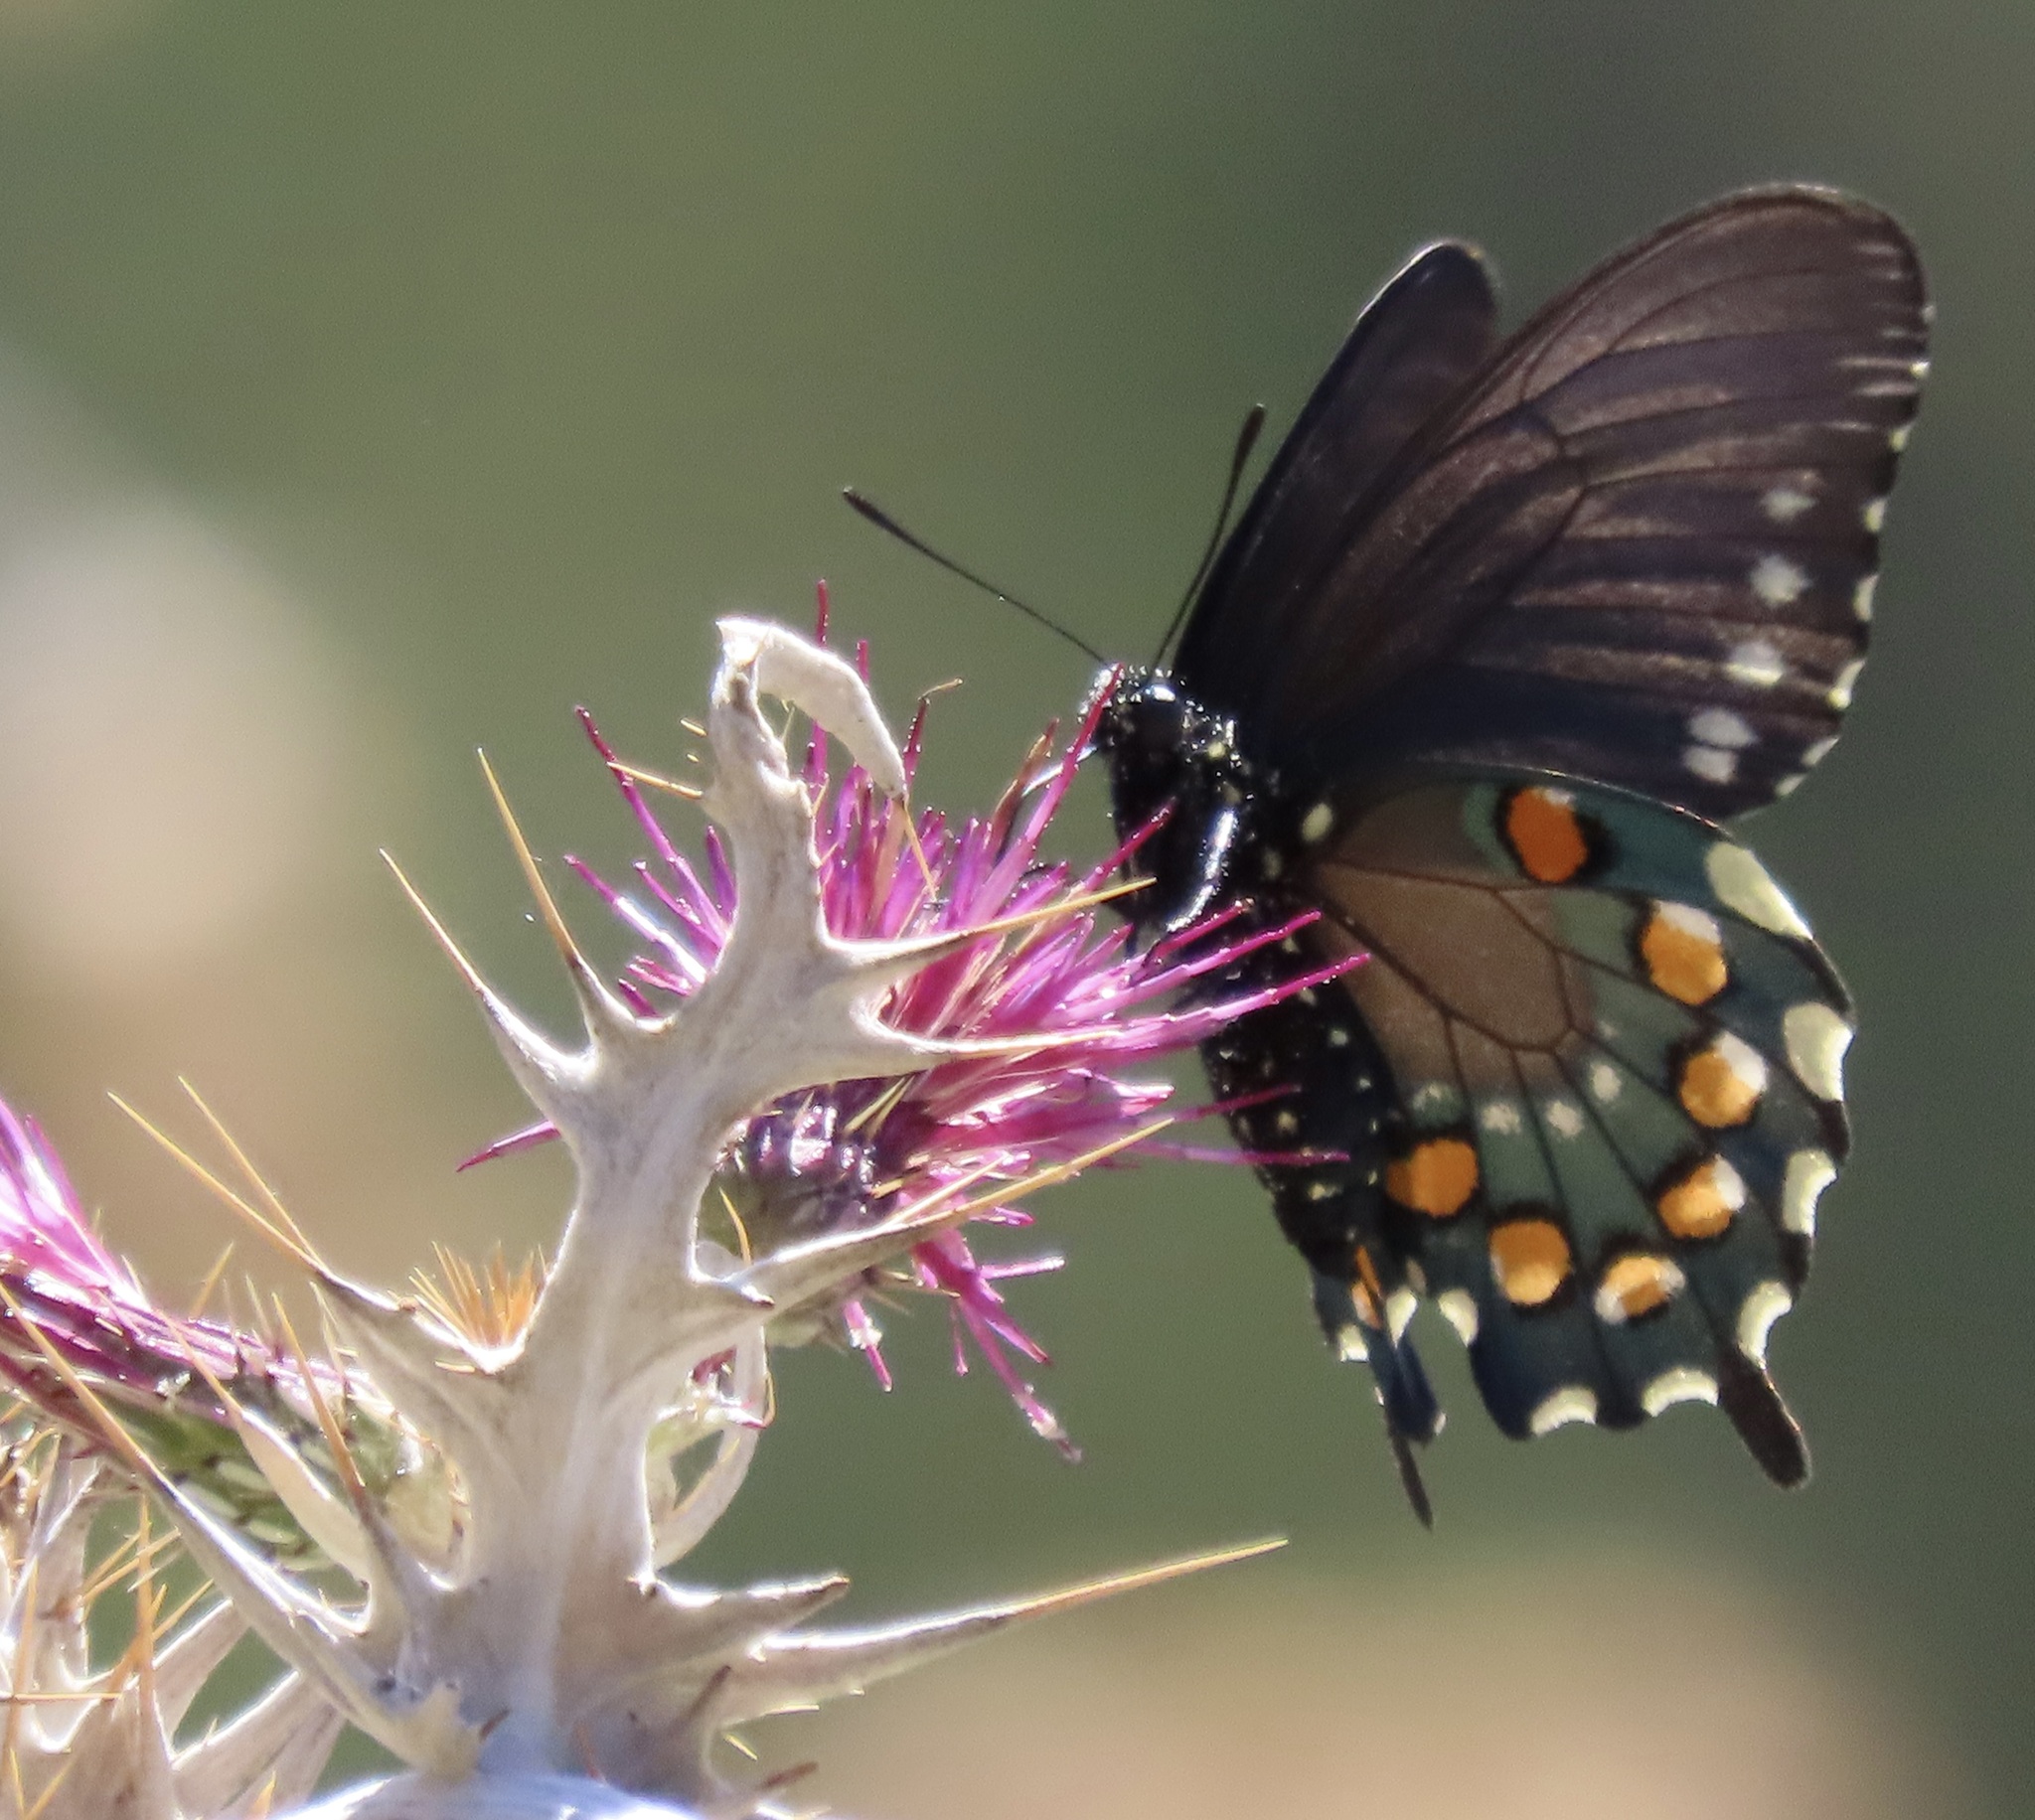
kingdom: Animalia
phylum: Arthropoda
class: Insecta
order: Lepidoptera
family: Papilionidae
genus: Battus
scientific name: Battus philenor
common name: Pipevine swallowtail
